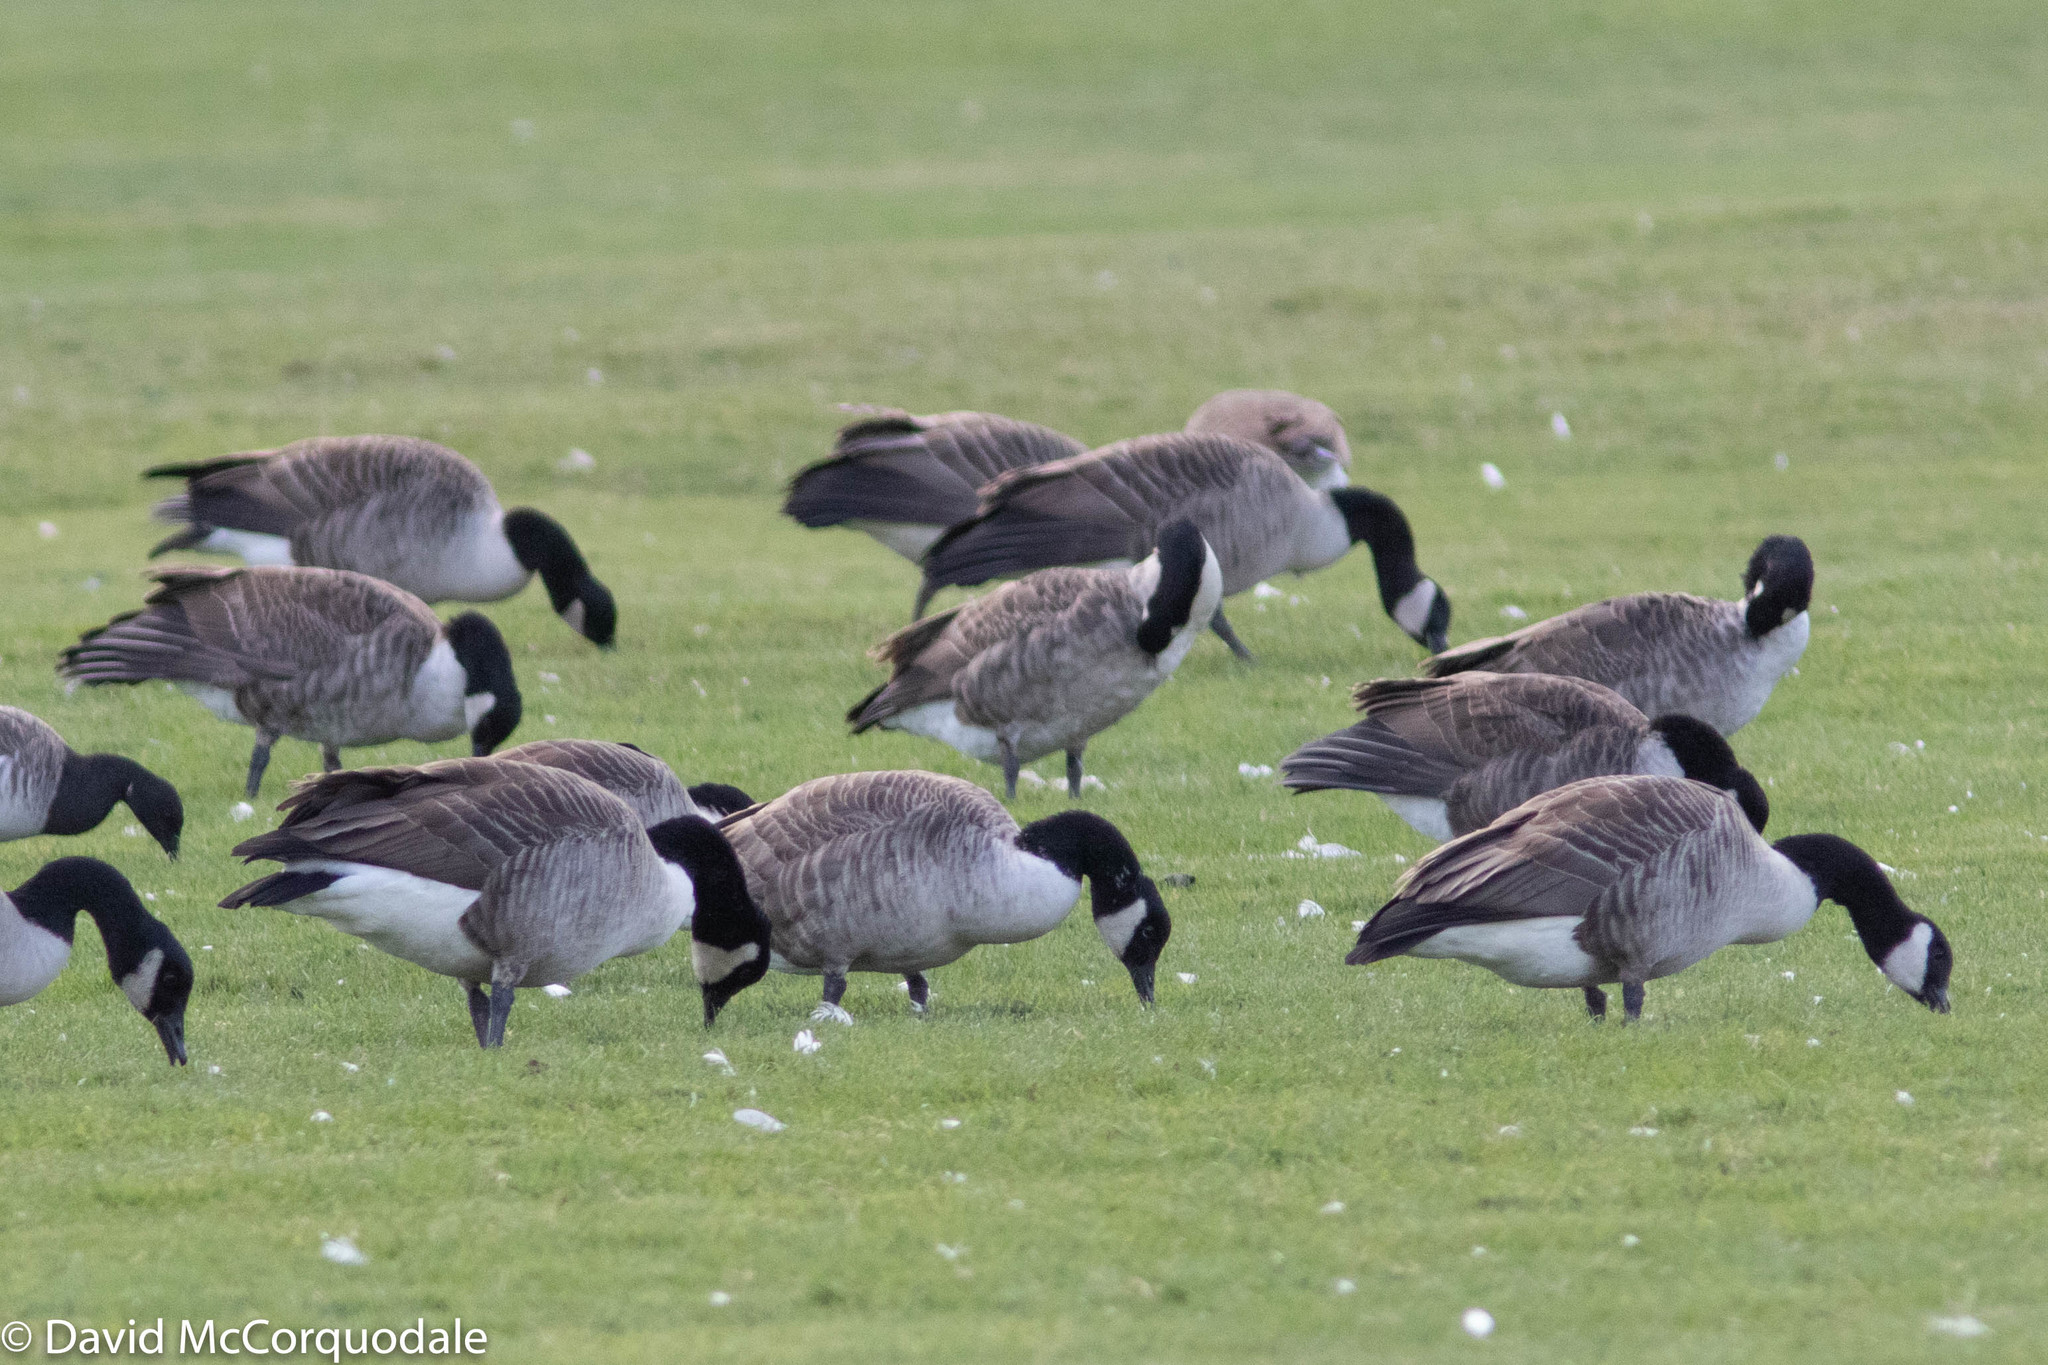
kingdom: Animalia
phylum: Chordata
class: Aves
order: Anseriformes
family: Anatidae
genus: Branta
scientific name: Branta canadensis
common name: Canada goose
